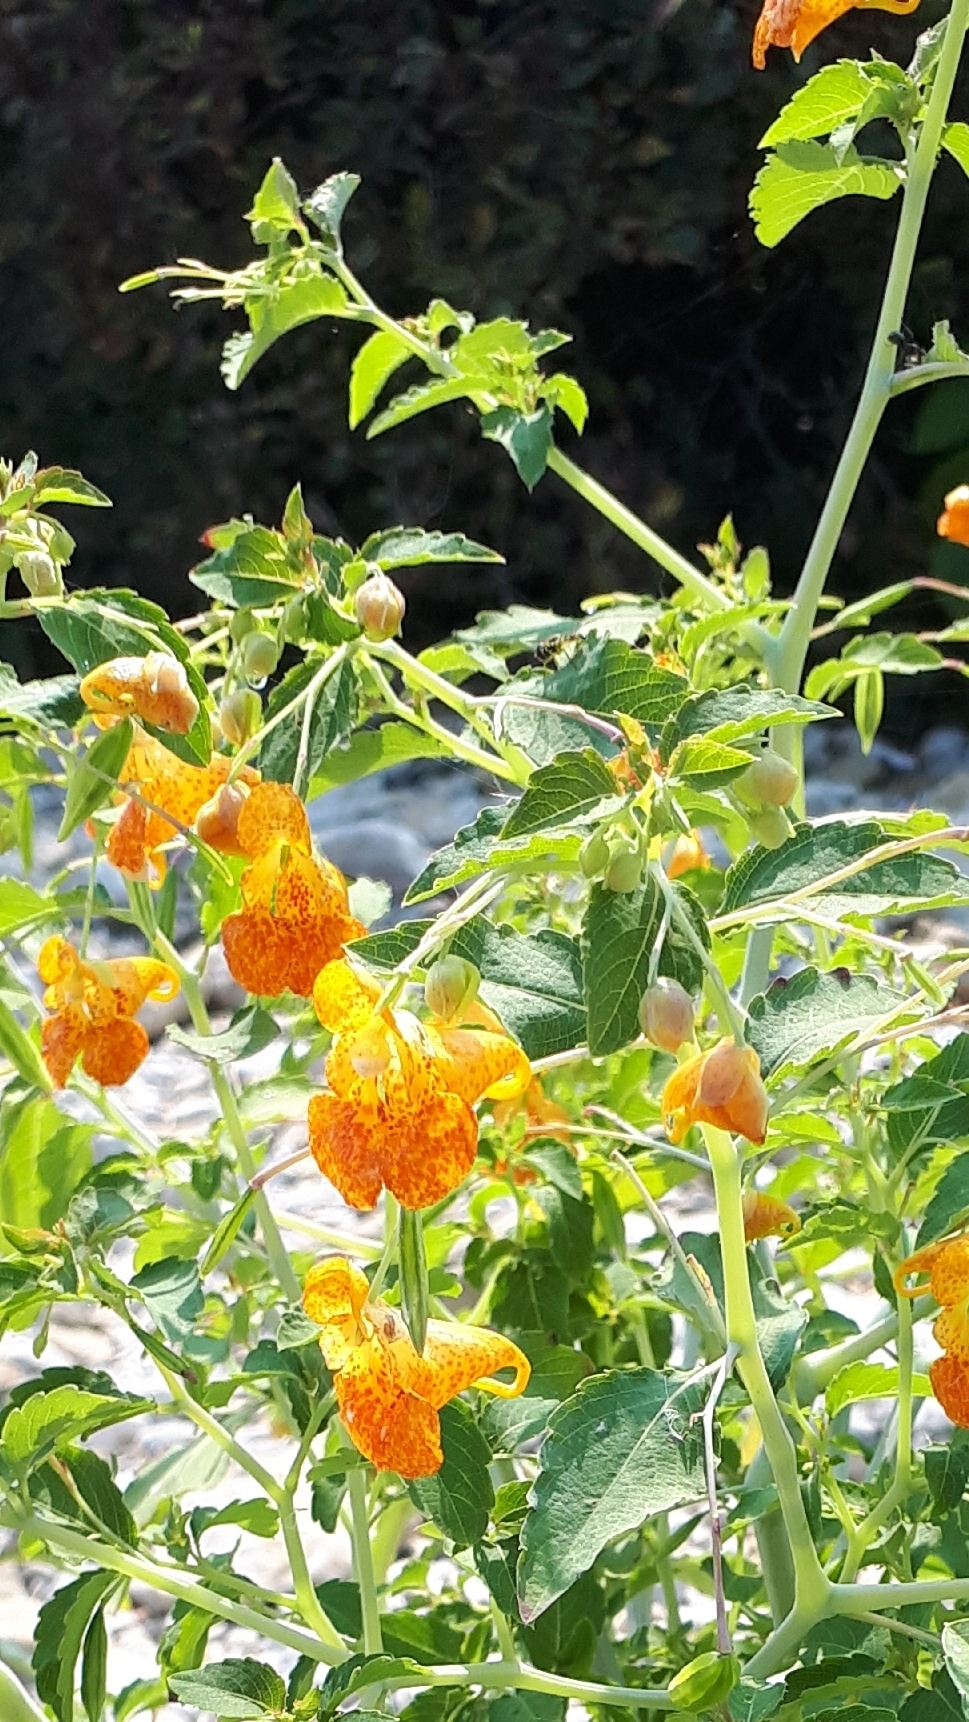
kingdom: Plantae
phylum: Tracheophyta
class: Magnoliopsida
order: Ericales
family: Balsaminaceae
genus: Impatiens
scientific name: Impatiens capensis
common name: Orange balsam
